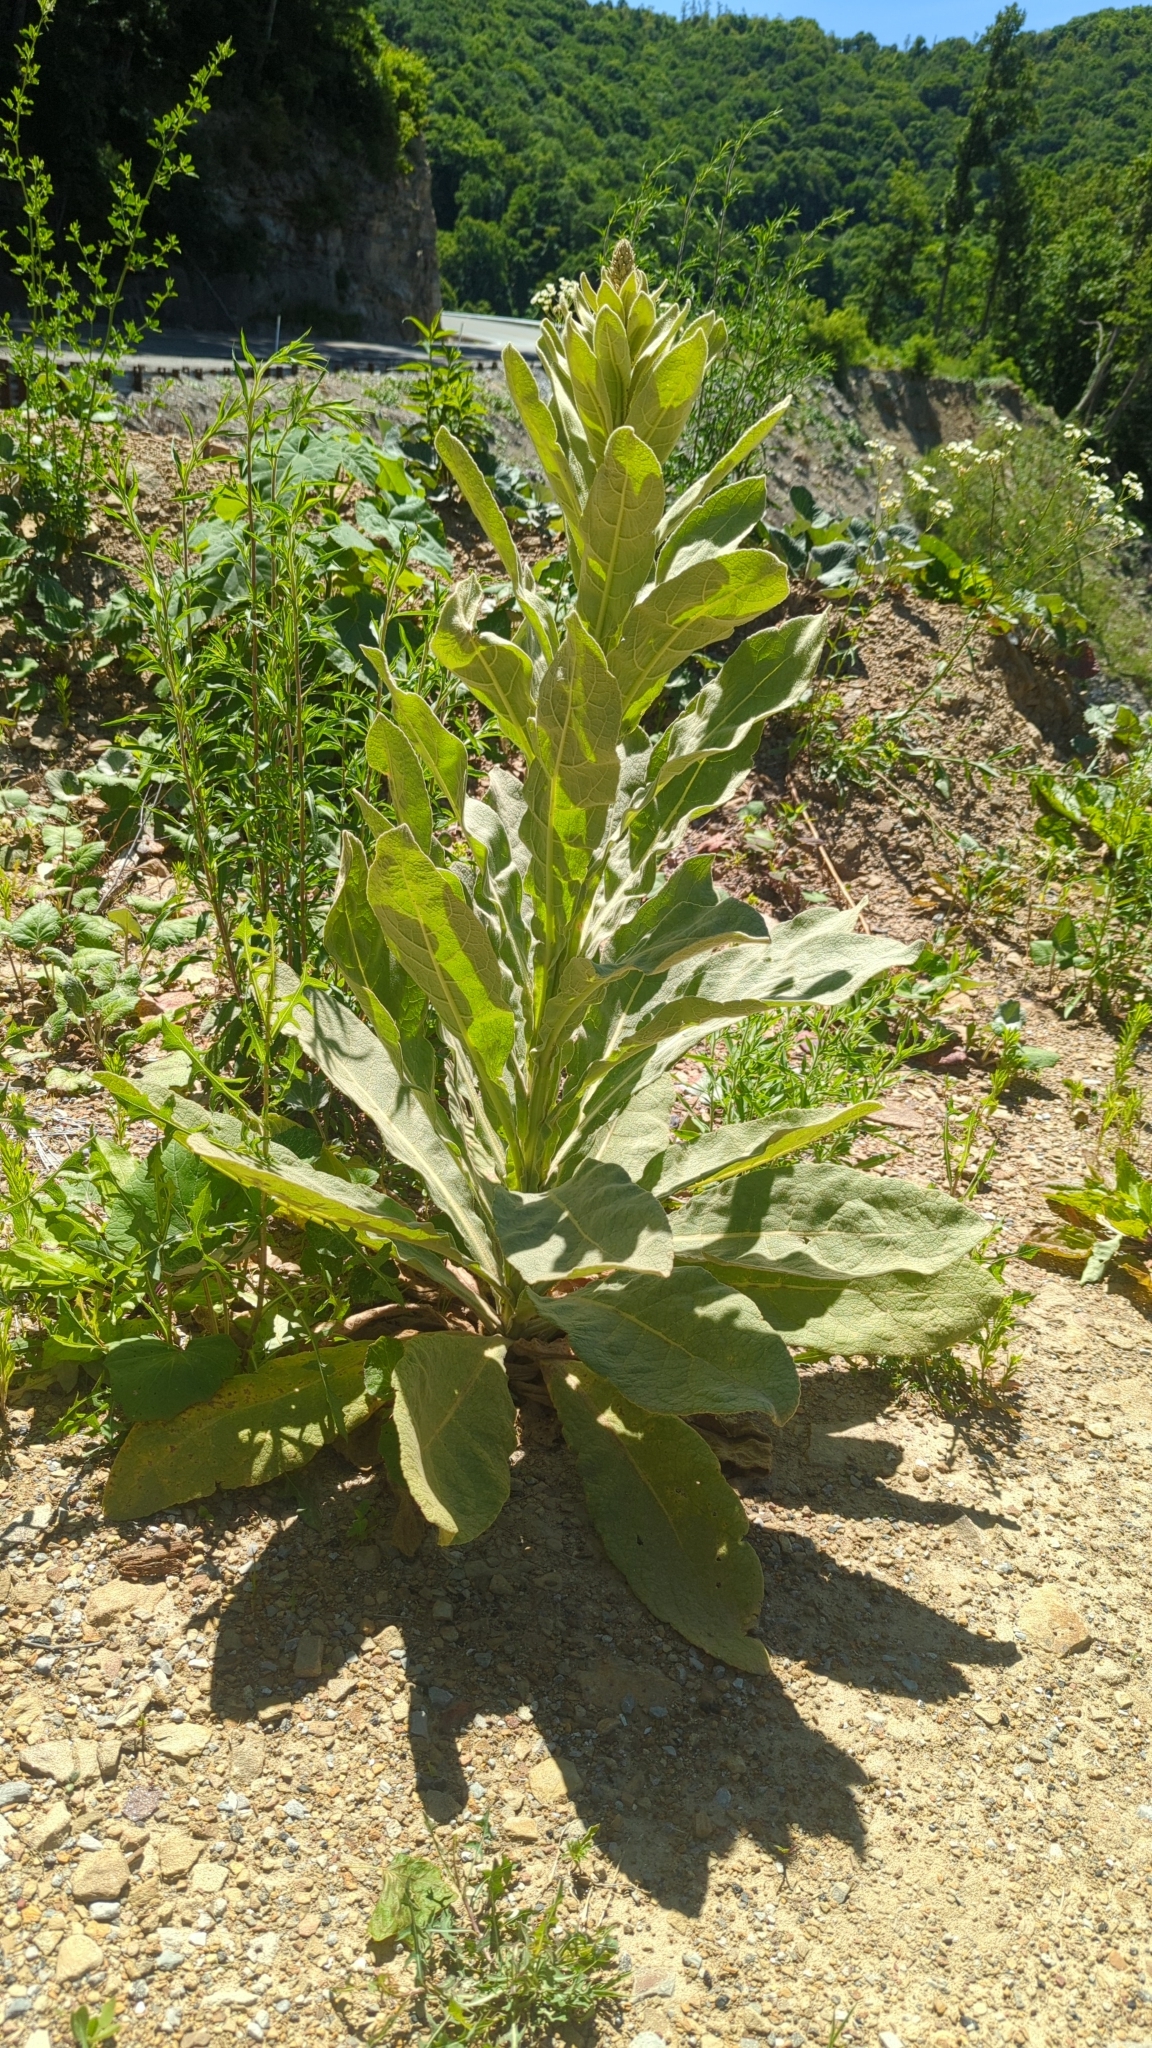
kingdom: Plantae
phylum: Tracheophyta
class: Magnoliopsida
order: Lamiales
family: Scrophulariaceae
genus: Verbascum
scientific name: Verbascum thapsus
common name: Common mullein
